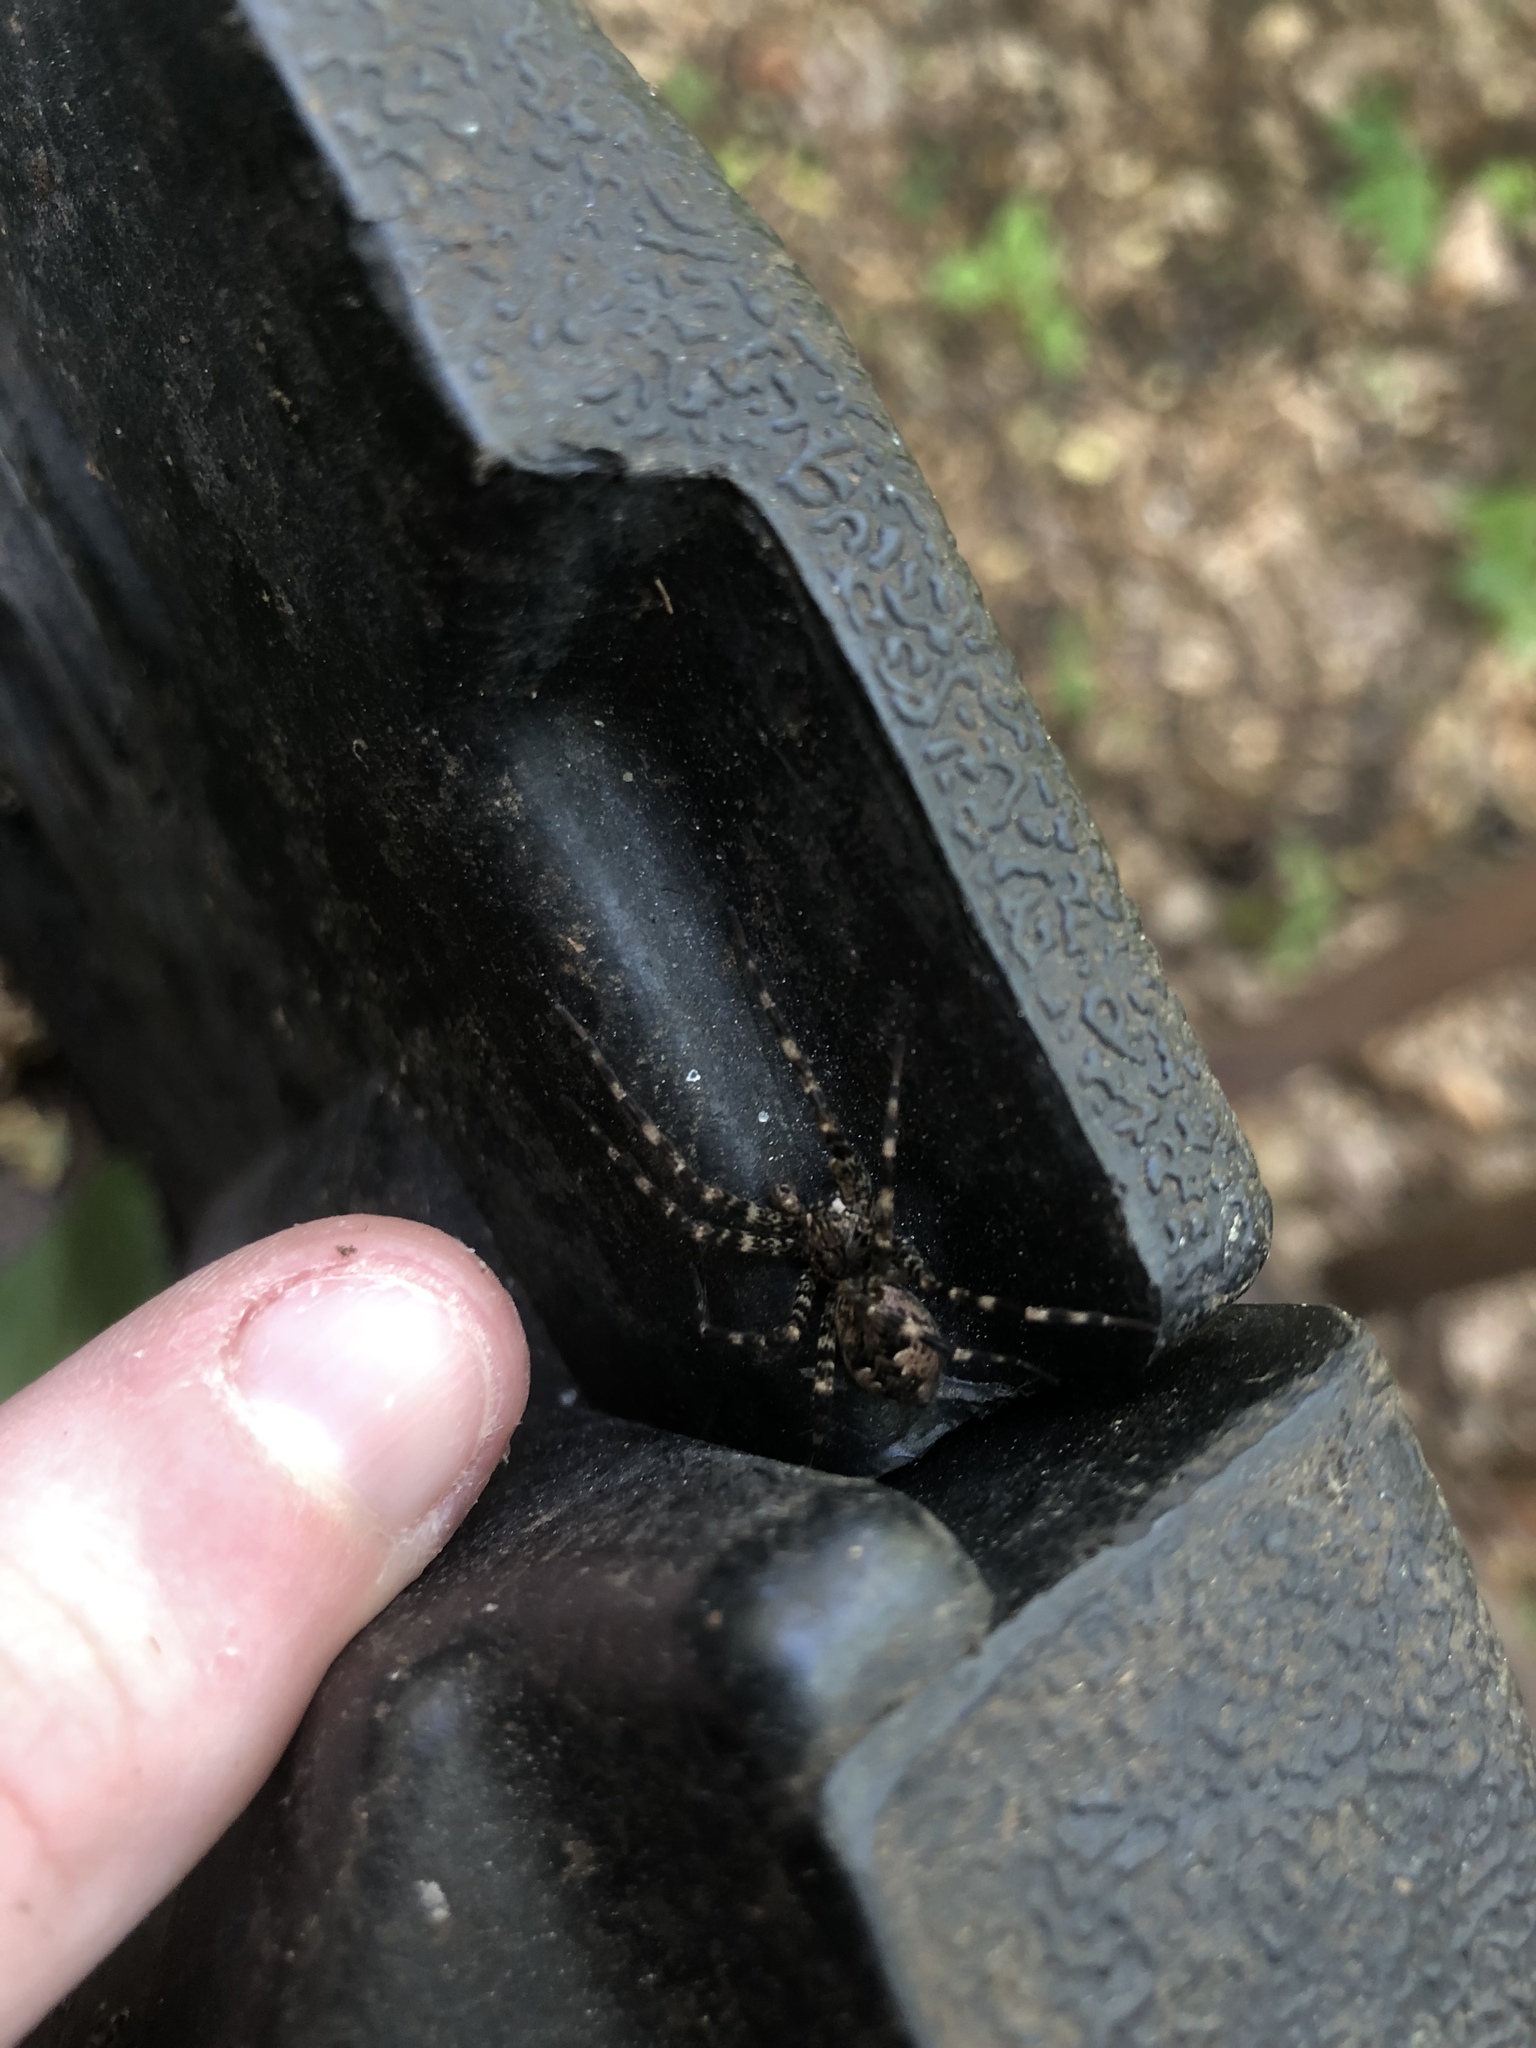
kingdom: Animalia
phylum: Arthropoda
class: Arachnida
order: Araneae
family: Pisauridae
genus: Dolomedes
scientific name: Dolomedes tenebrosus
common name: Dark fishing spider
